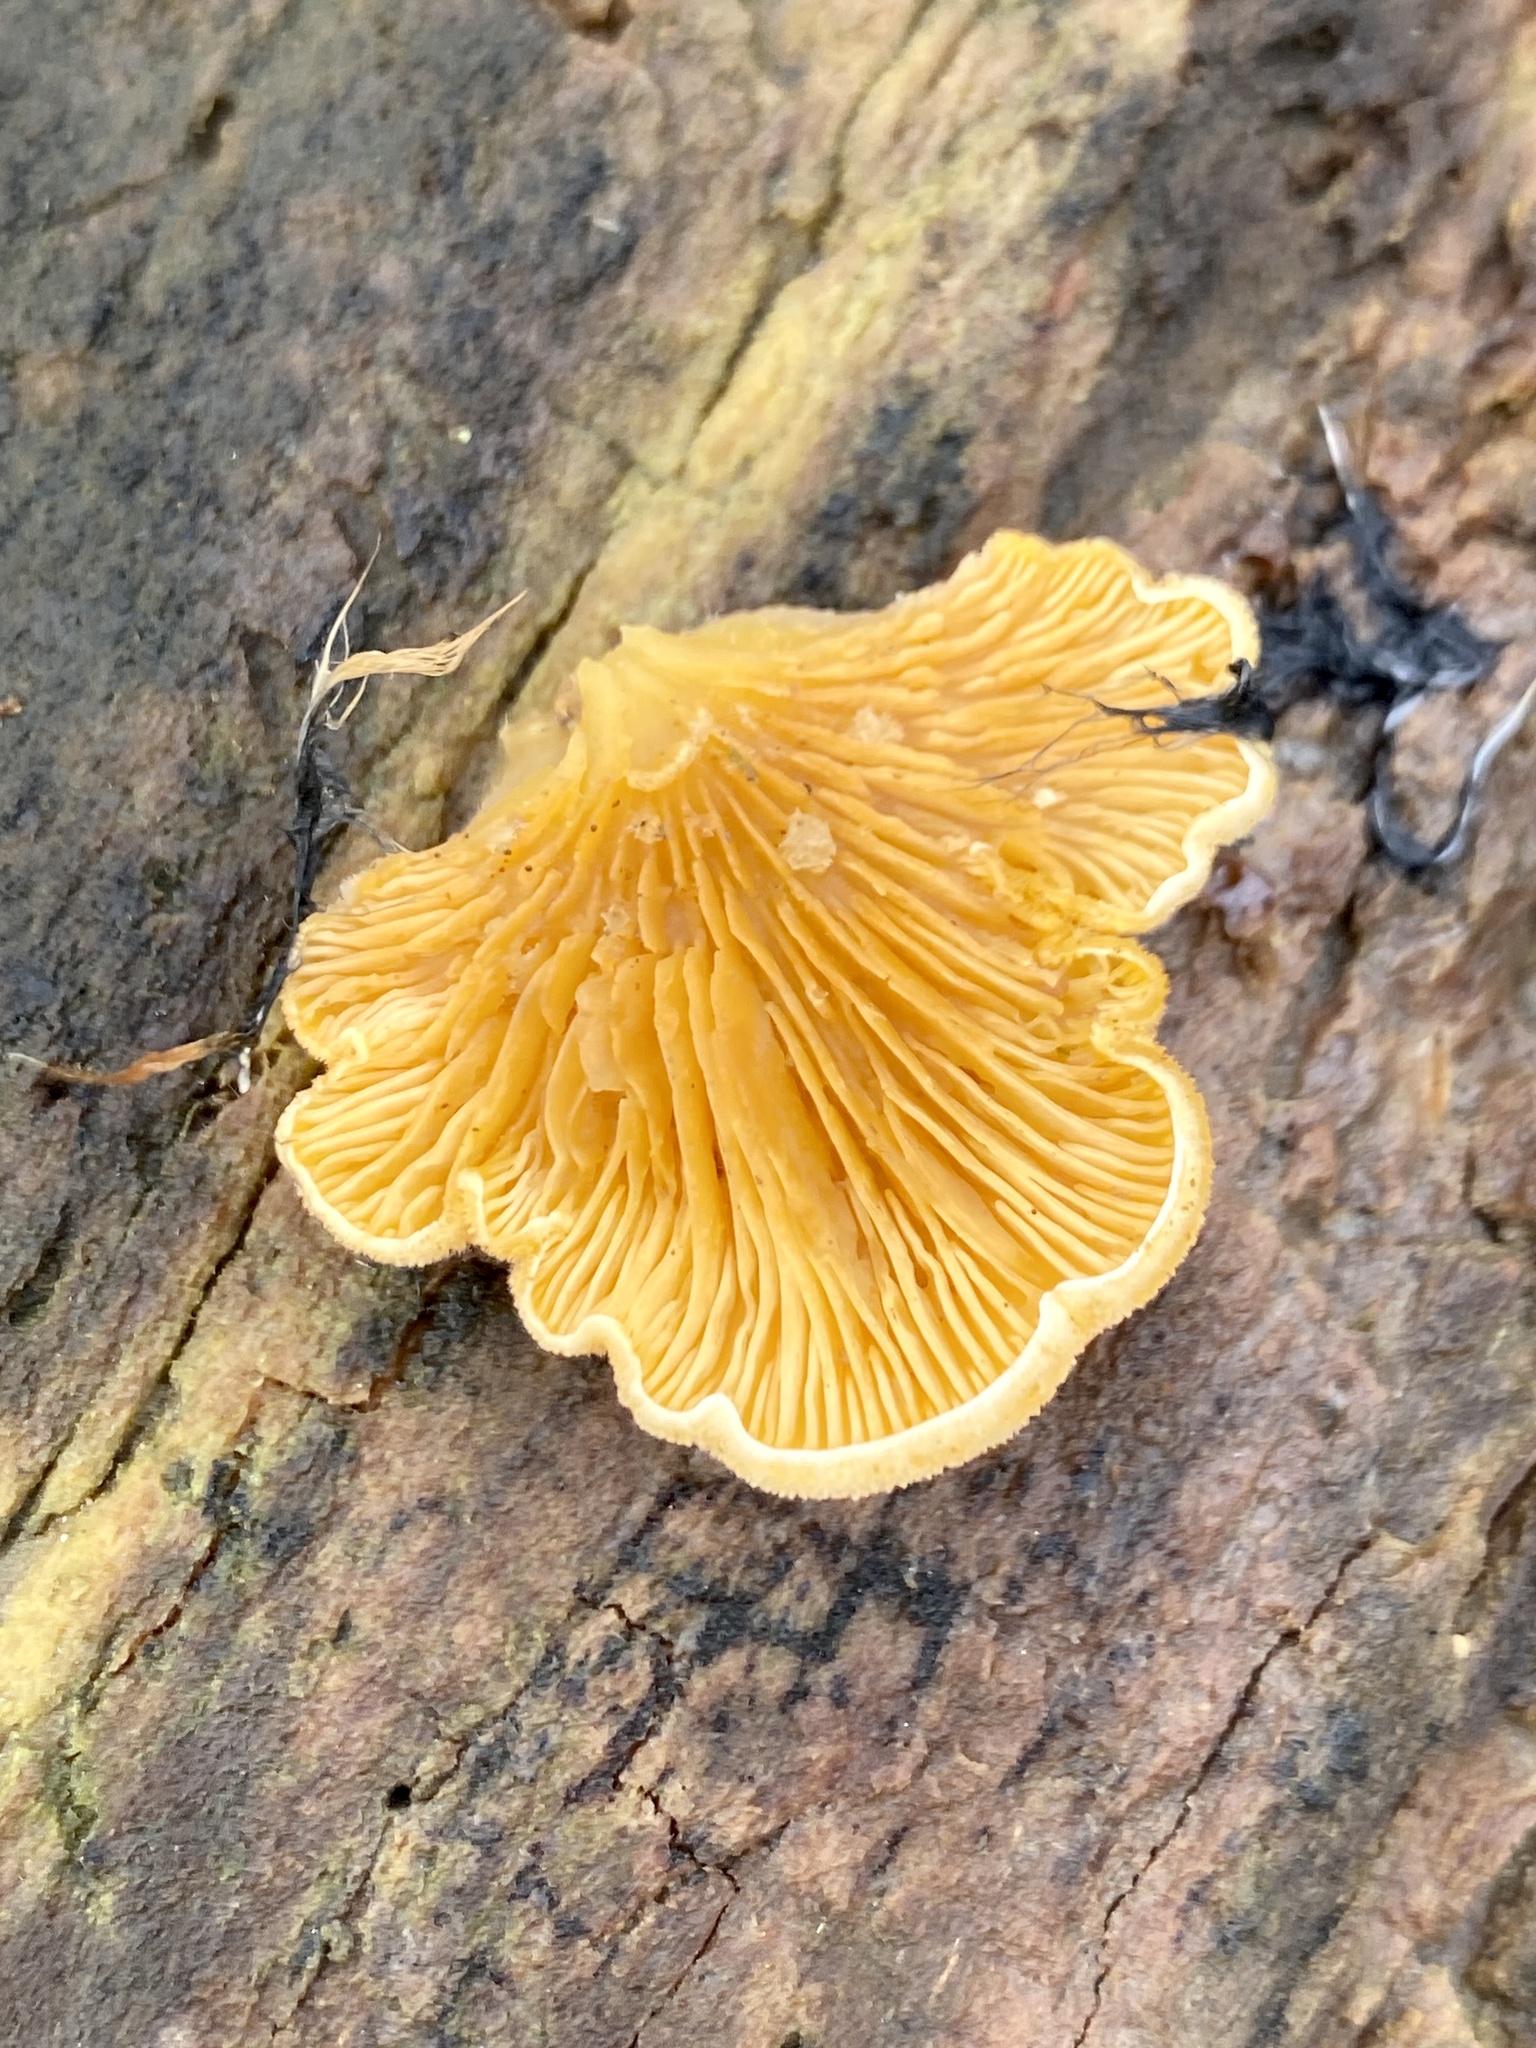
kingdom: Fungi
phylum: Basidiomycota
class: Agaricomycetes
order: Agaricales
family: Phyllotopsidaceae
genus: Phyllotopsis
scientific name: Phyllotopsis nidulans
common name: Orange mock oyster
